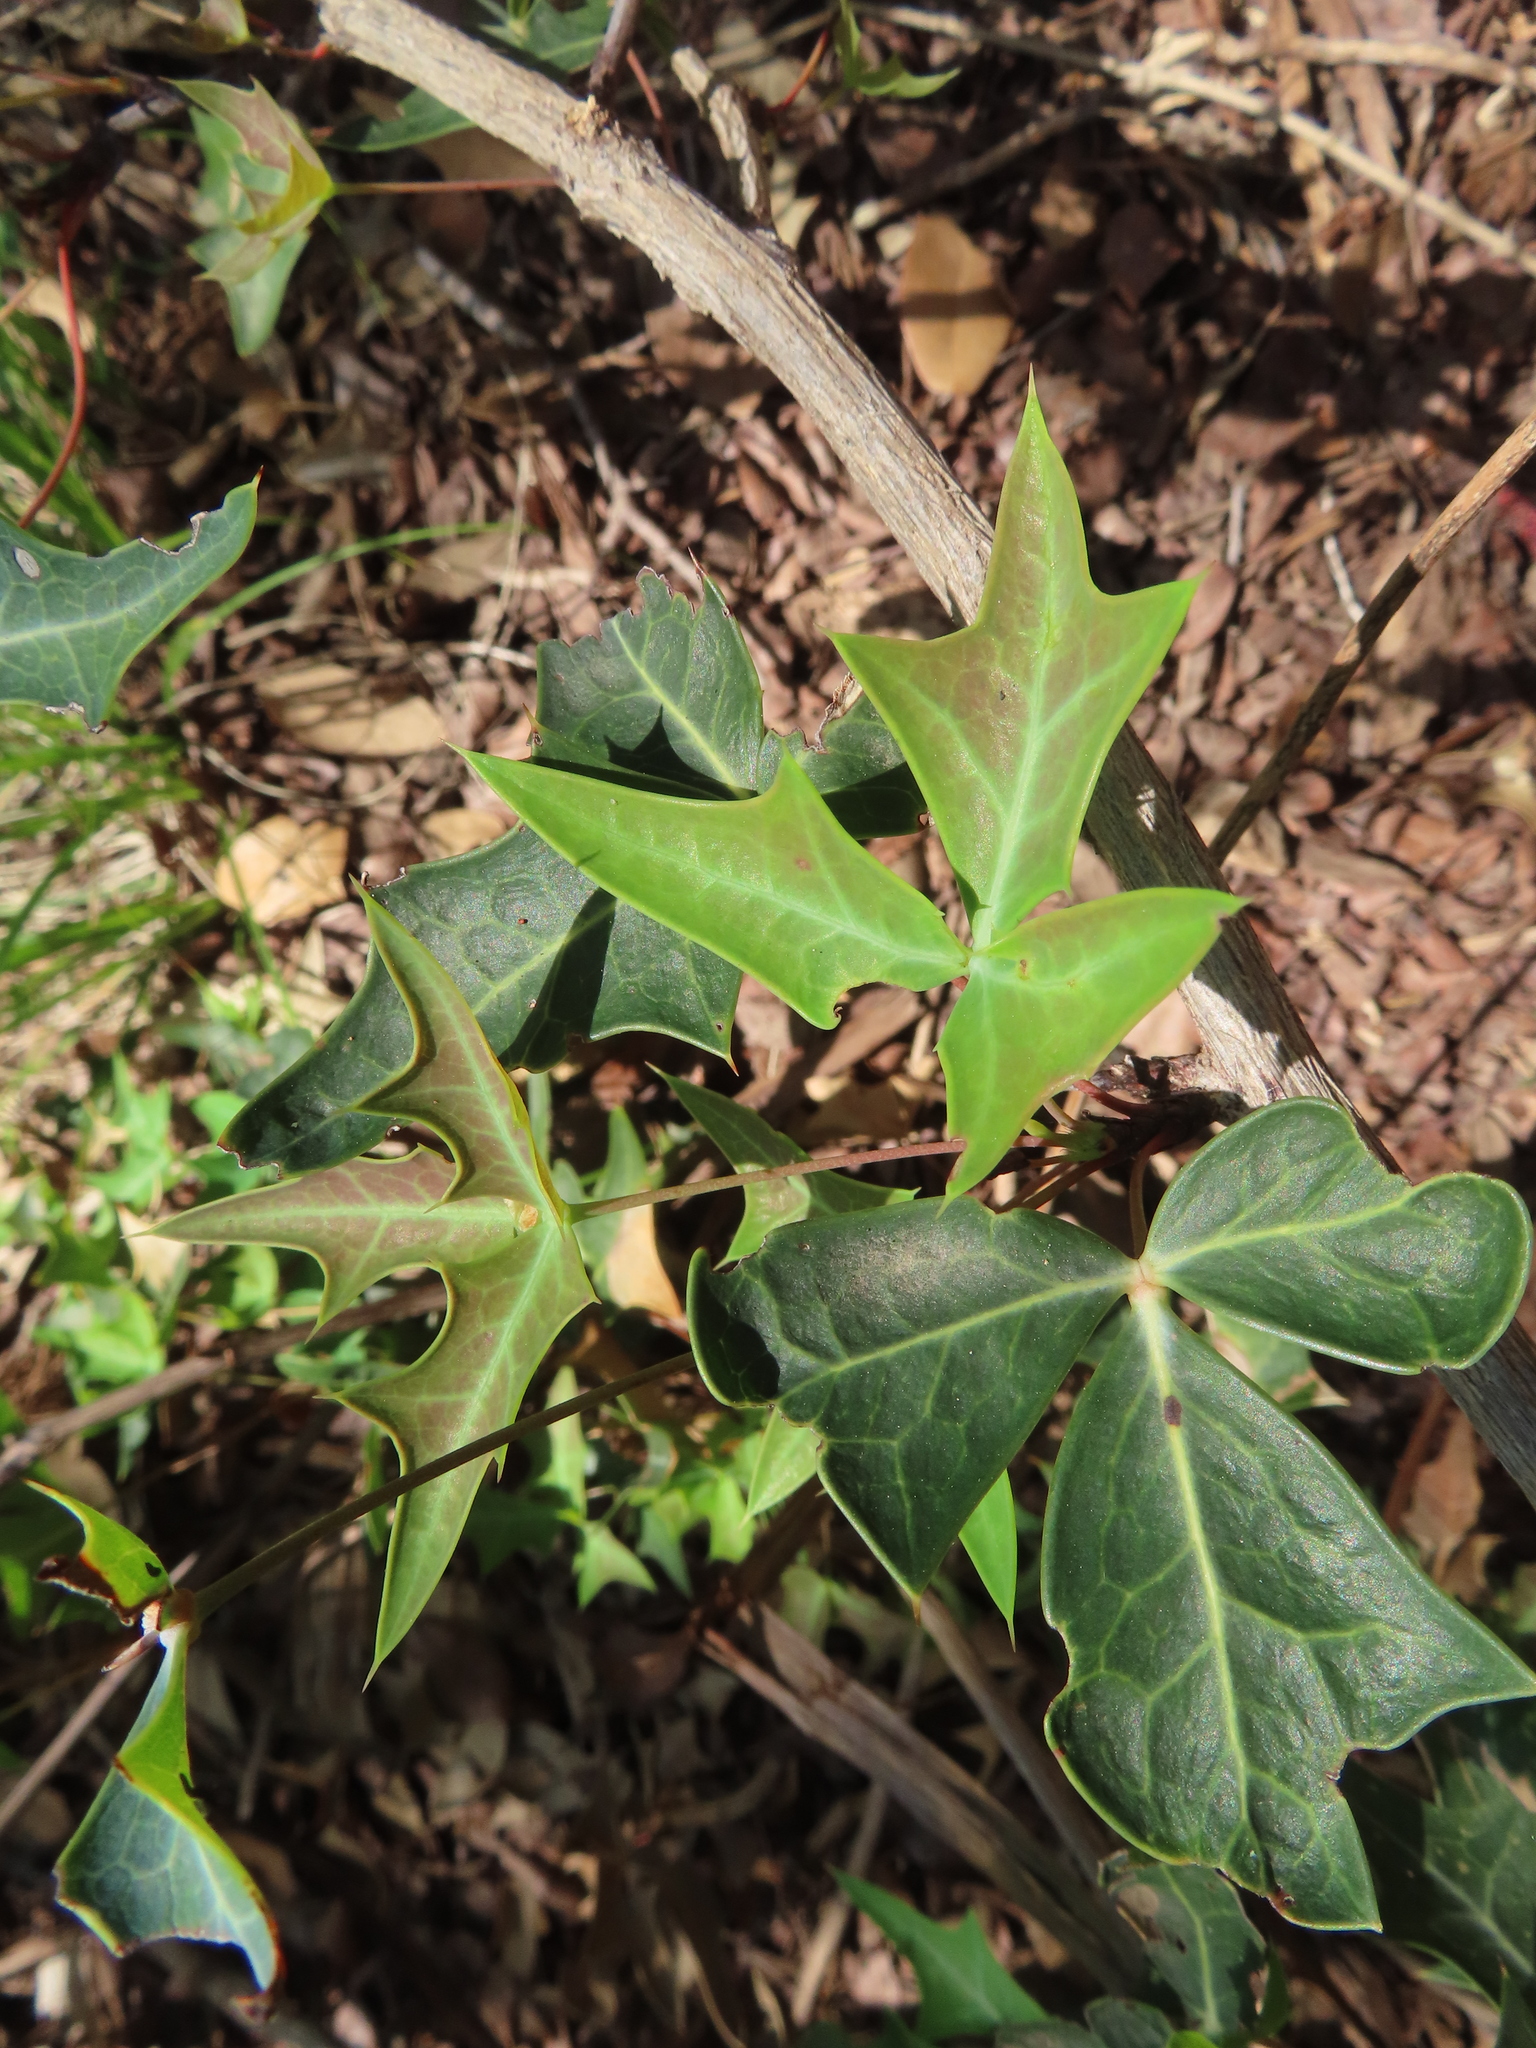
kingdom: Plantae
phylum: Tracheophyta
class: Magnoliopsida
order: Ranunculales
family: Berberidaceae
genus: Alloberberis
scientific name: Alloberberis trifoliolata
